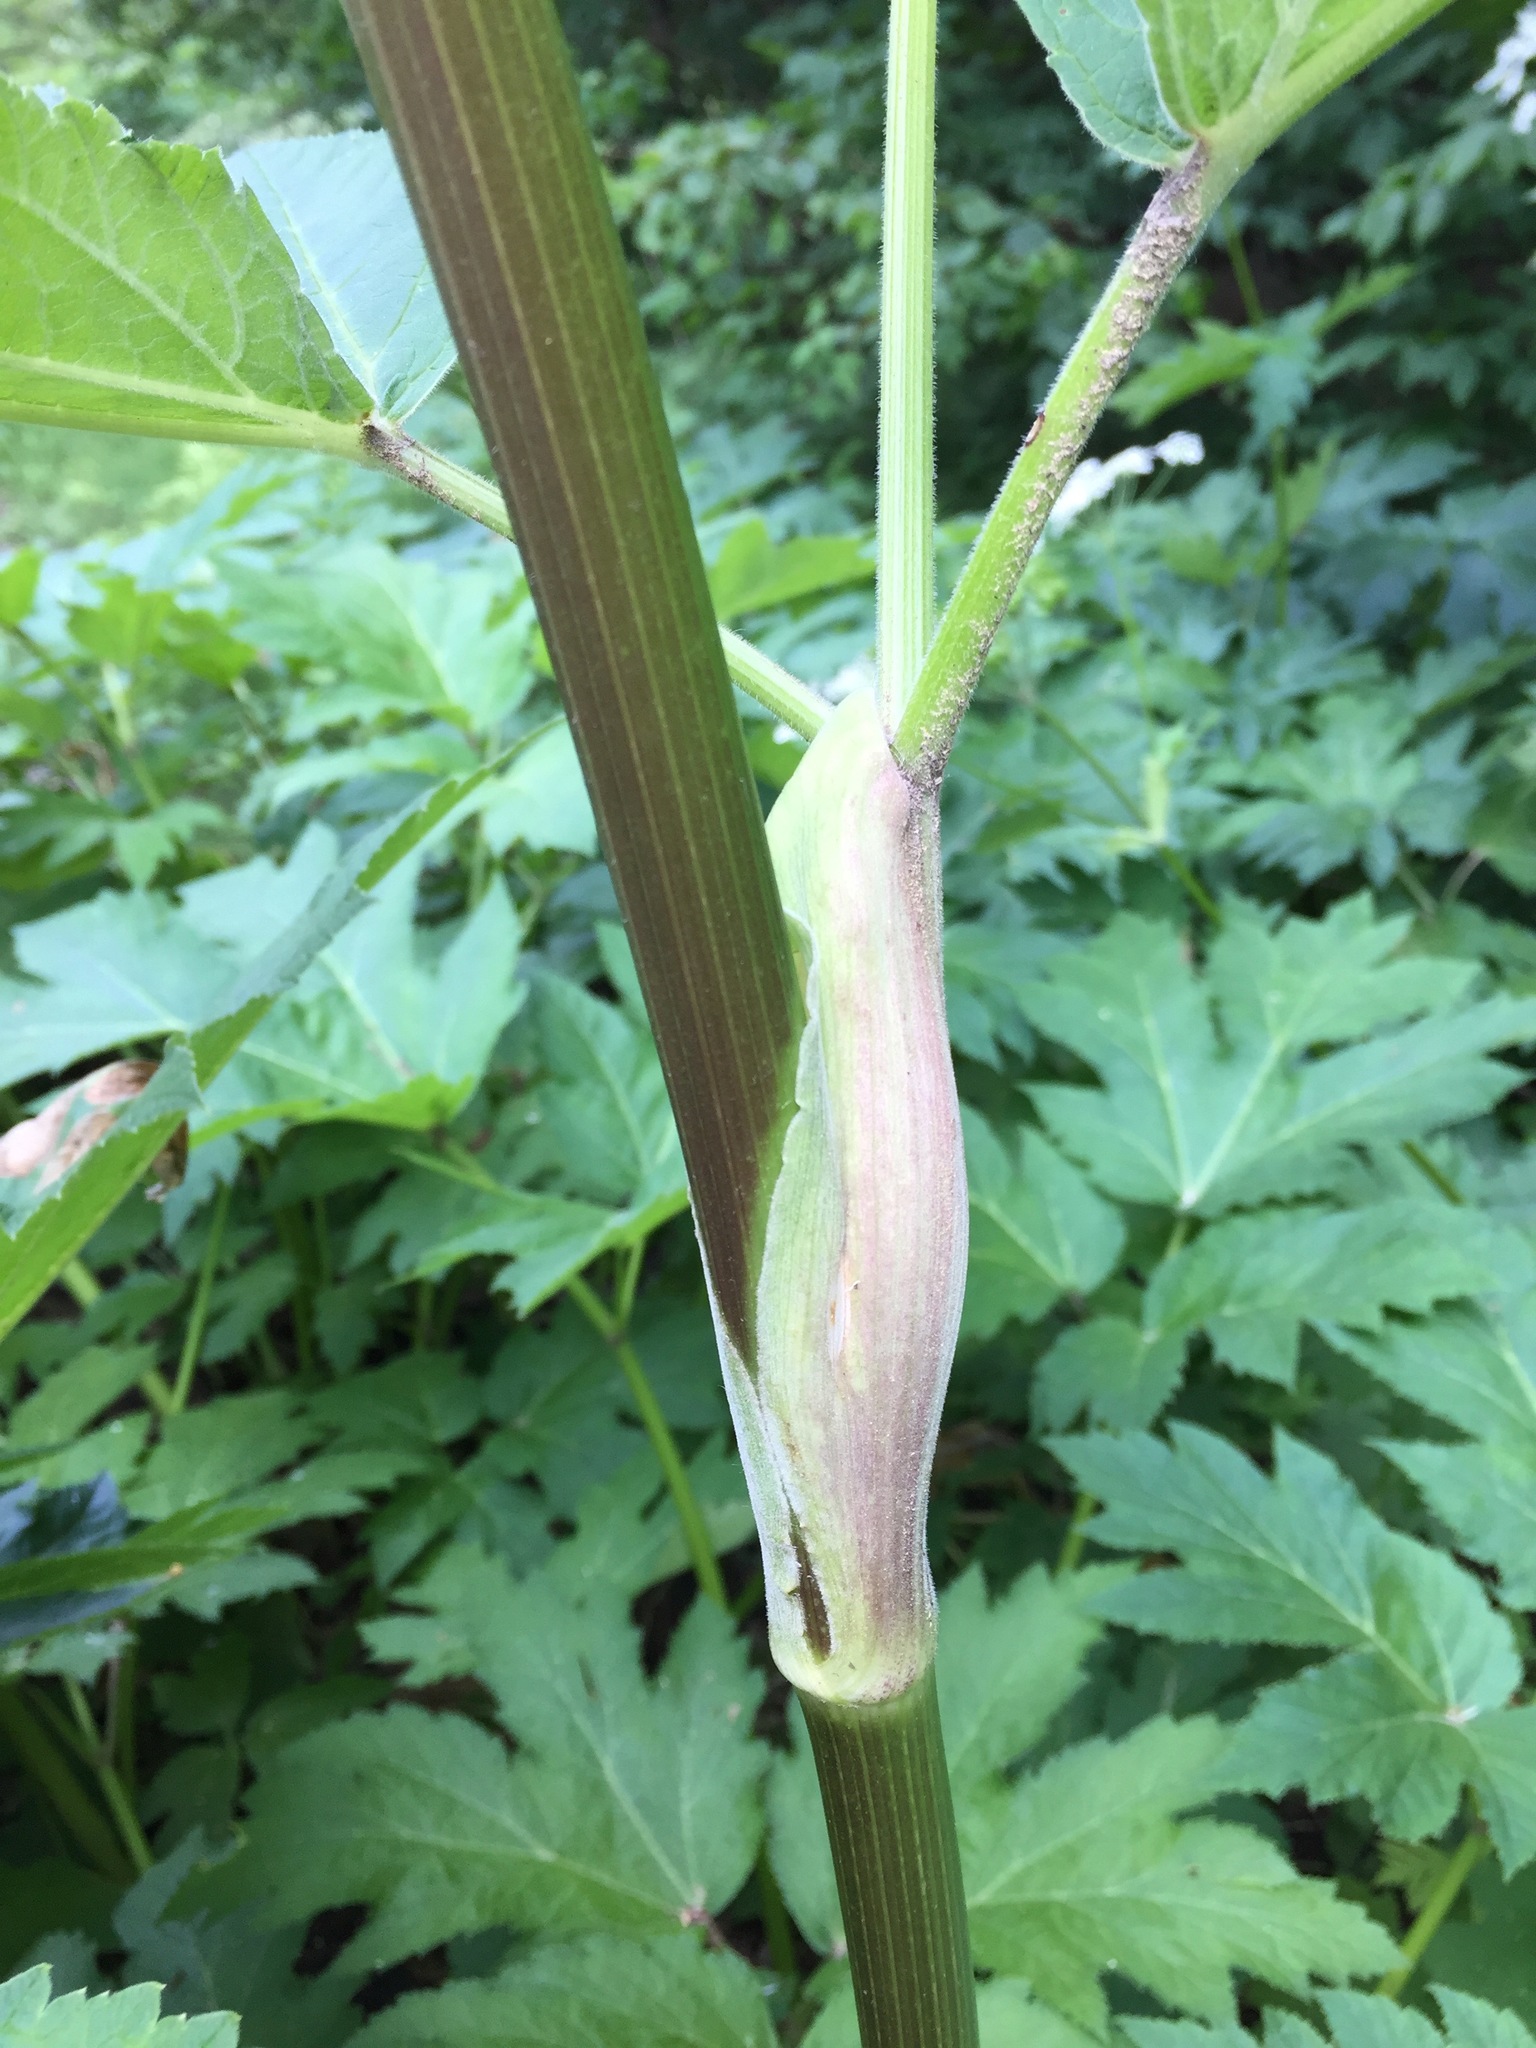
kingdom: Plantae
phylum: Tracheophyta
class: Magnoliopsida
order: Apiales
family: Apiaceae
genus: Heracleum
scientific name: Heracleum maximum
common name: American cow parsnip
